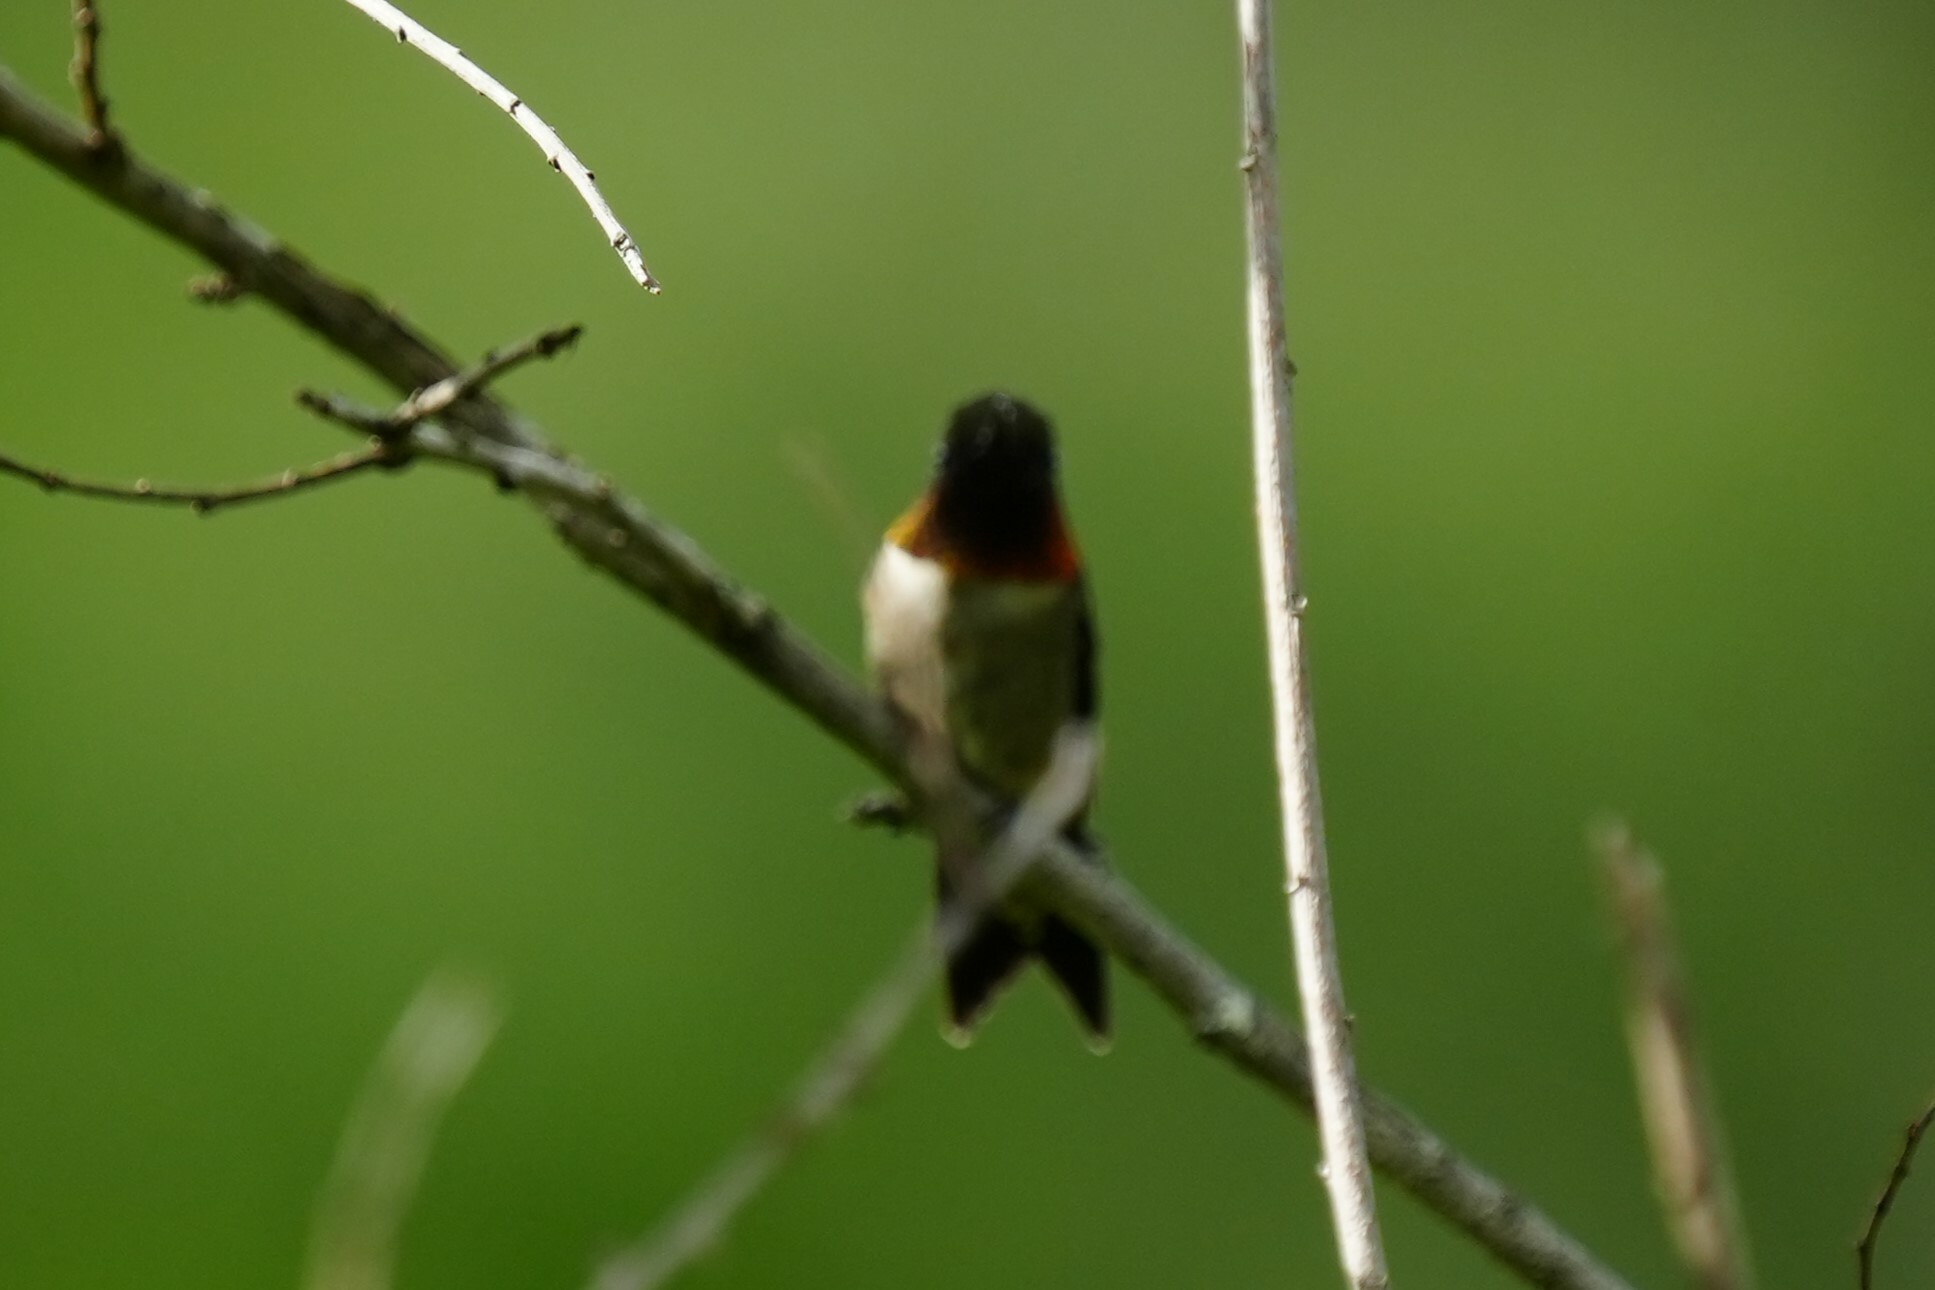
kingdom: Animalia
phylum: Chordata
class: Aves
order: Apodiformes
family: Trochilidae
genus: Archilochus
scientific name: Archilochus colubris
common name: Ruby-throated hummingbird
